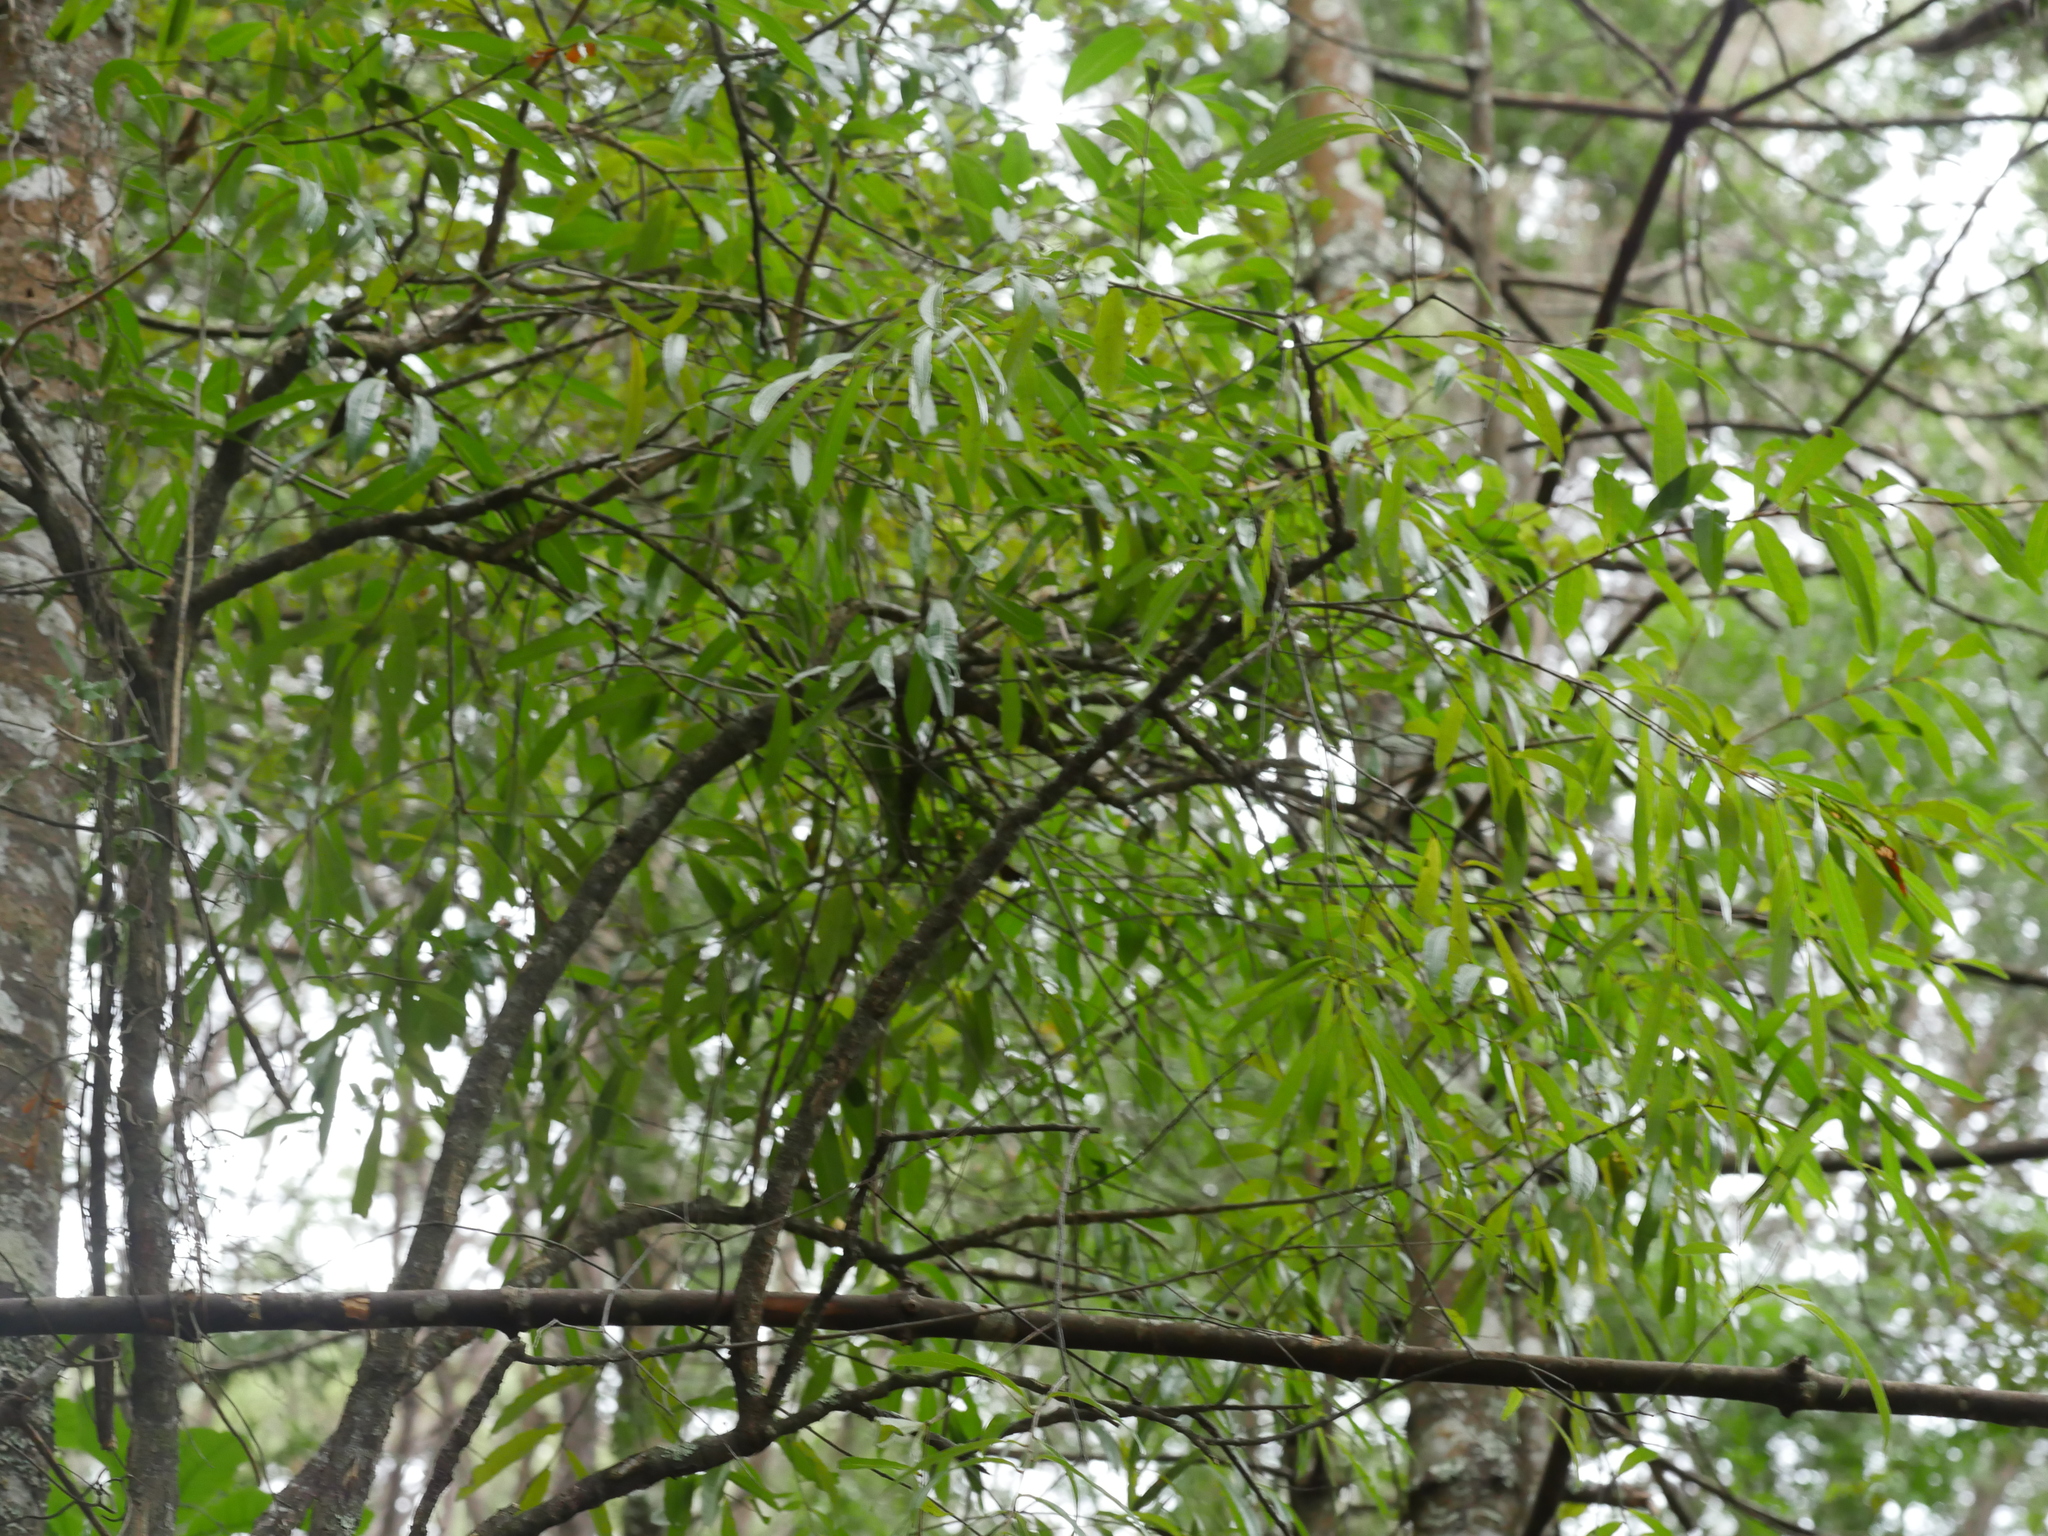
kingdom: Plantae
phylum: Tracheophyta
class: Magnoliopsida
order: Laurales
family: Lauraceae
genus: Beilschmiedia
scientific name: Beilschmiedia tawa
